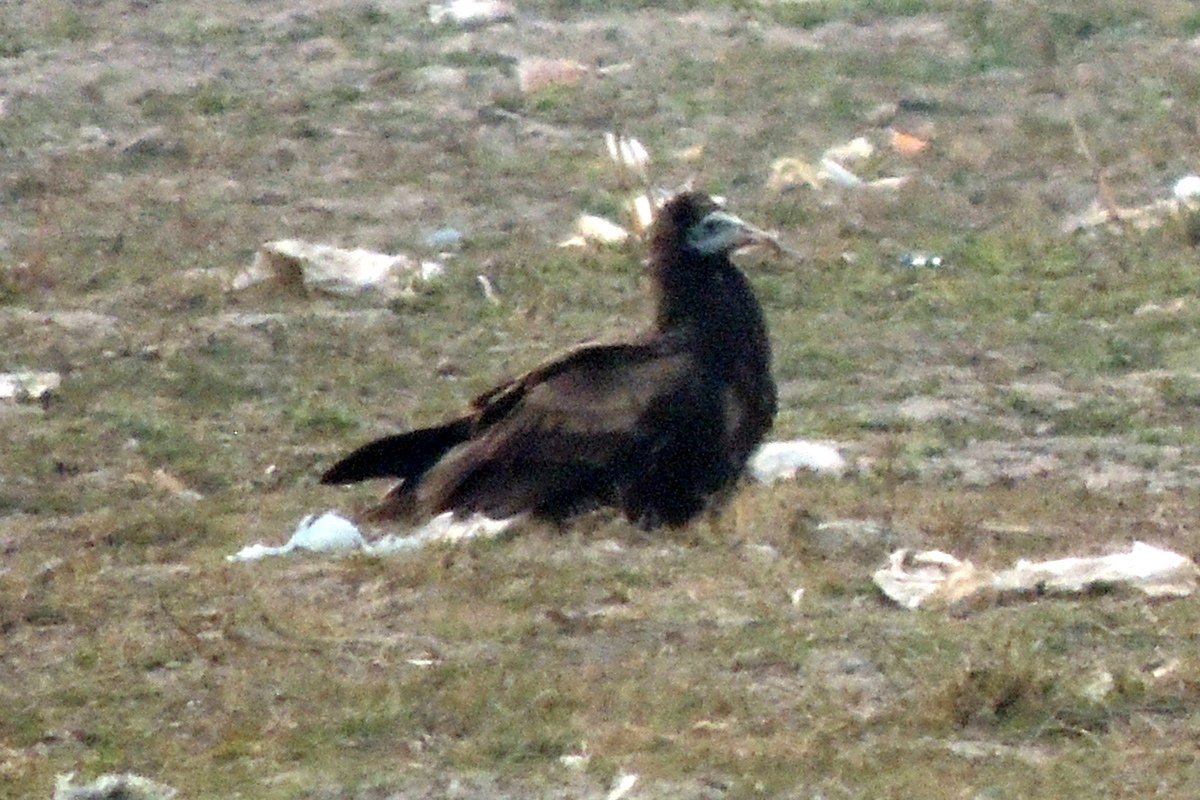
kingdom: Animalia
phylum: Chordata
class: Aves
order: Accipitriformes
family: Accipitridae
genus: Neophron
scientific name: Neophron percnopterus
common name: Egyptian vulture
